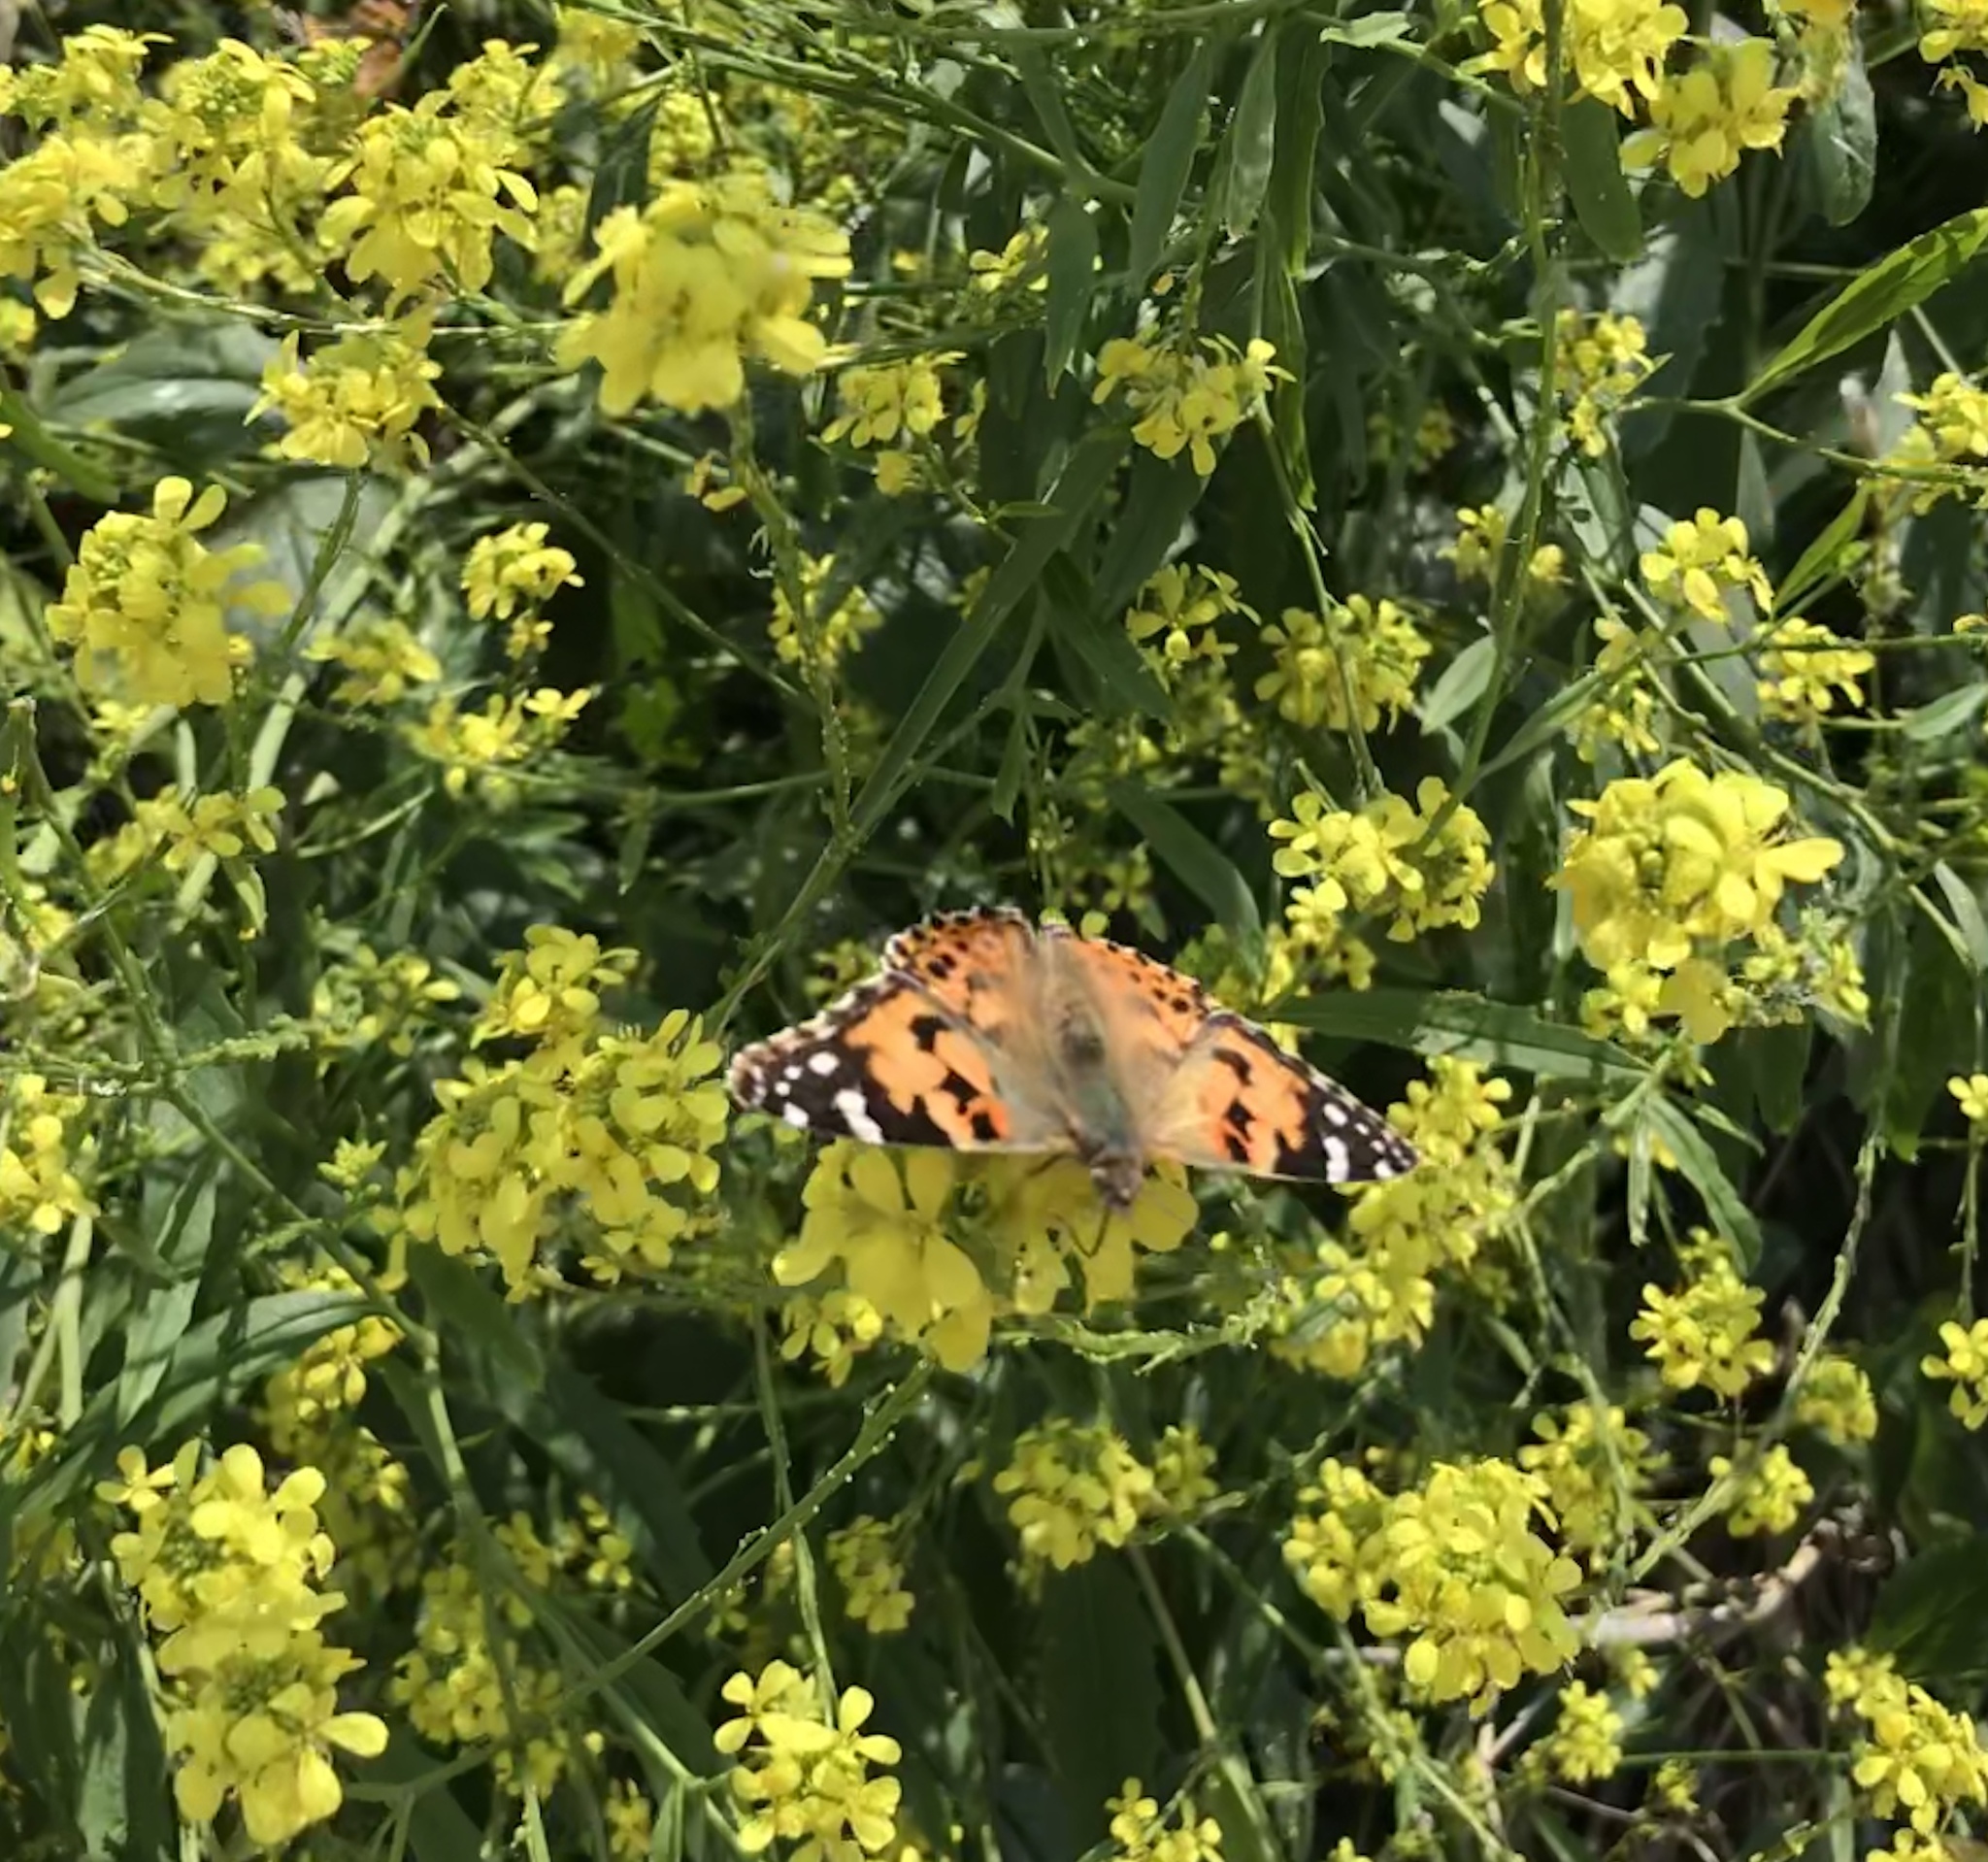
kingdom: Animalia
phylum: Arthropoda
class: Insecta
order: Lepidoptera
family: Nymphalidae
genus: Vanessa
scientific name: Vanessa cardui
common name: Painted lady
